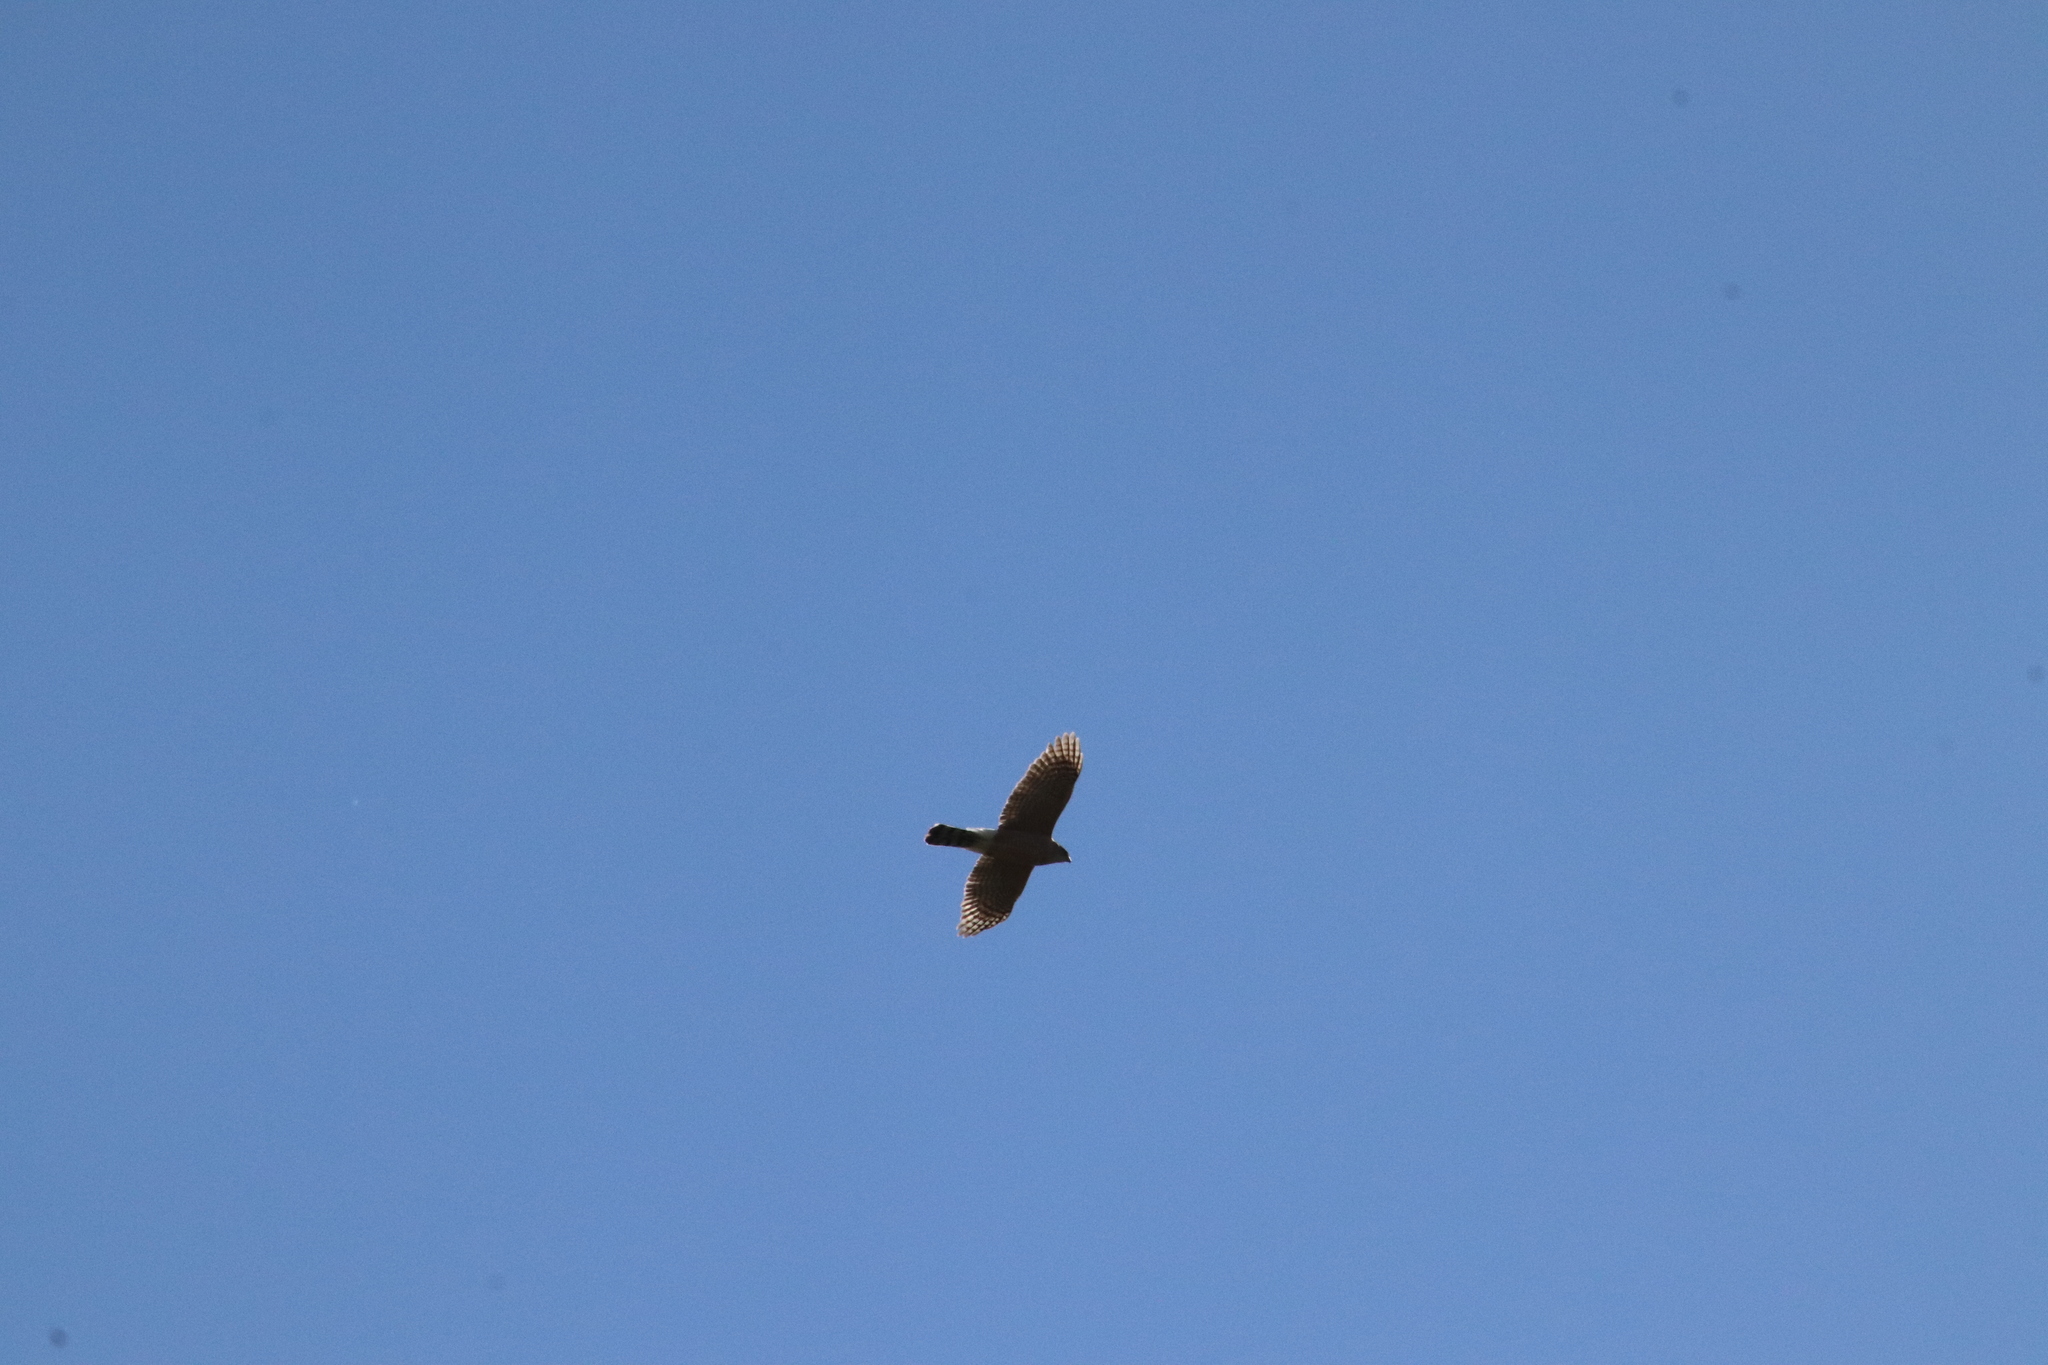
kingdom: Animalia
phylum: Chordata
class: Aves
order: Accipitriformes
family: Accipitridae
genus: Accipiter
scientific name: Accipiter cooperii
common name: Cooper's hawk
